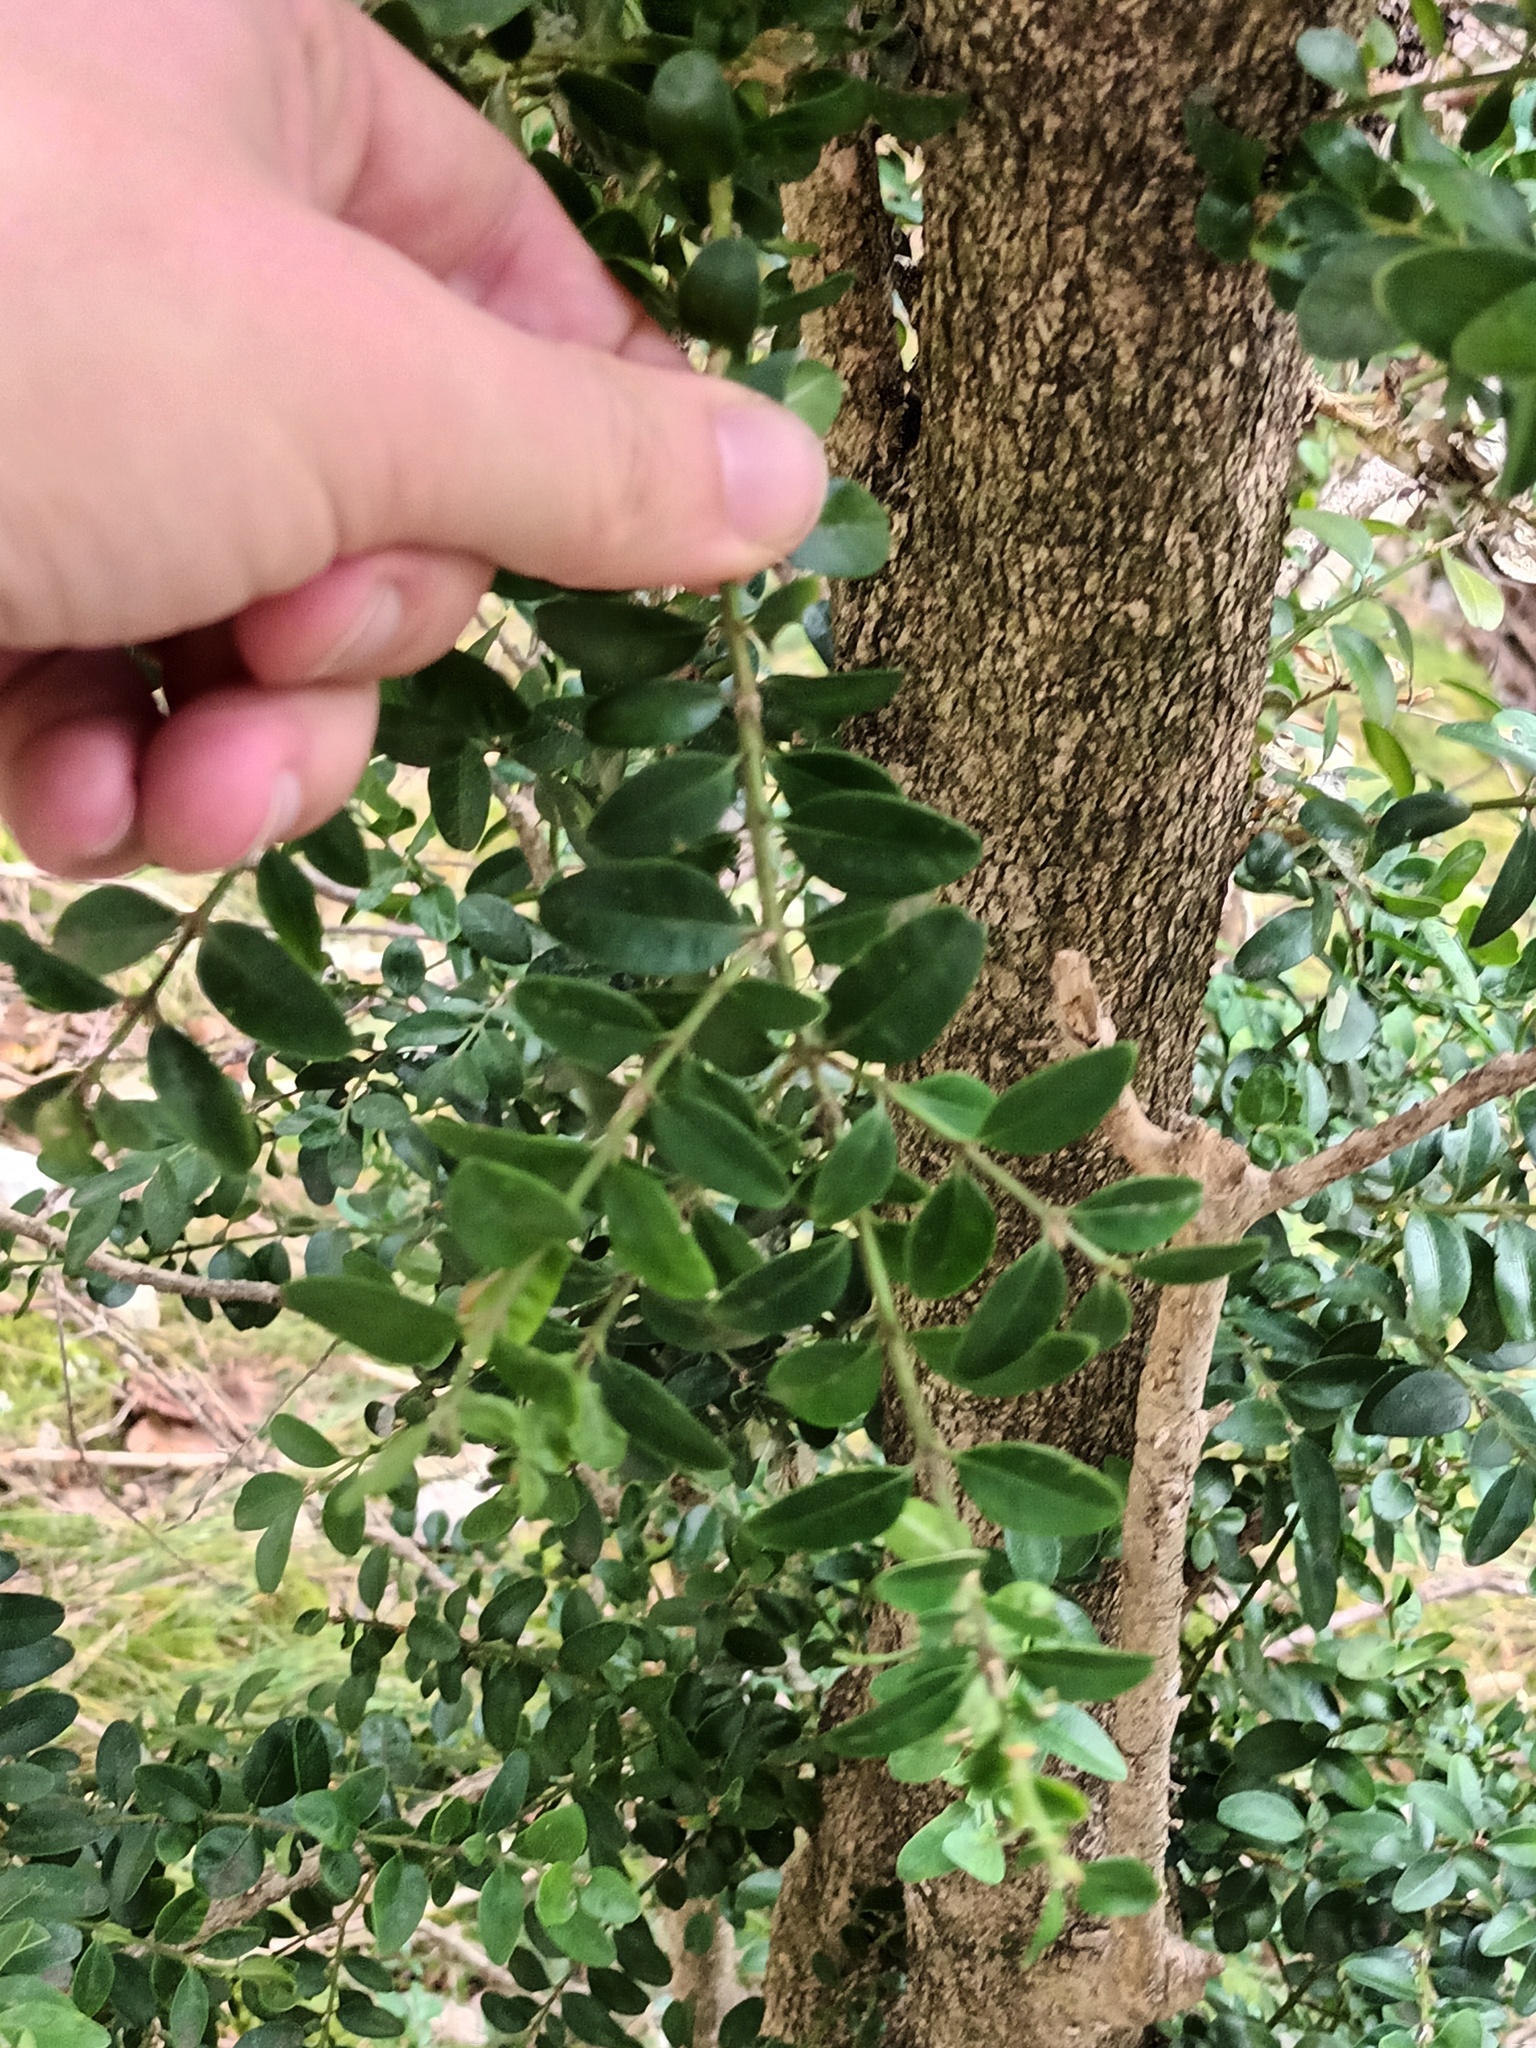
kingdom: Plantae
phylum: Tracheophyta
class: Magnoliopsida
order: Buxales
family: Buxaceae
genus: Buxus
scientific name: Buxus sempervirens
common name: Box
